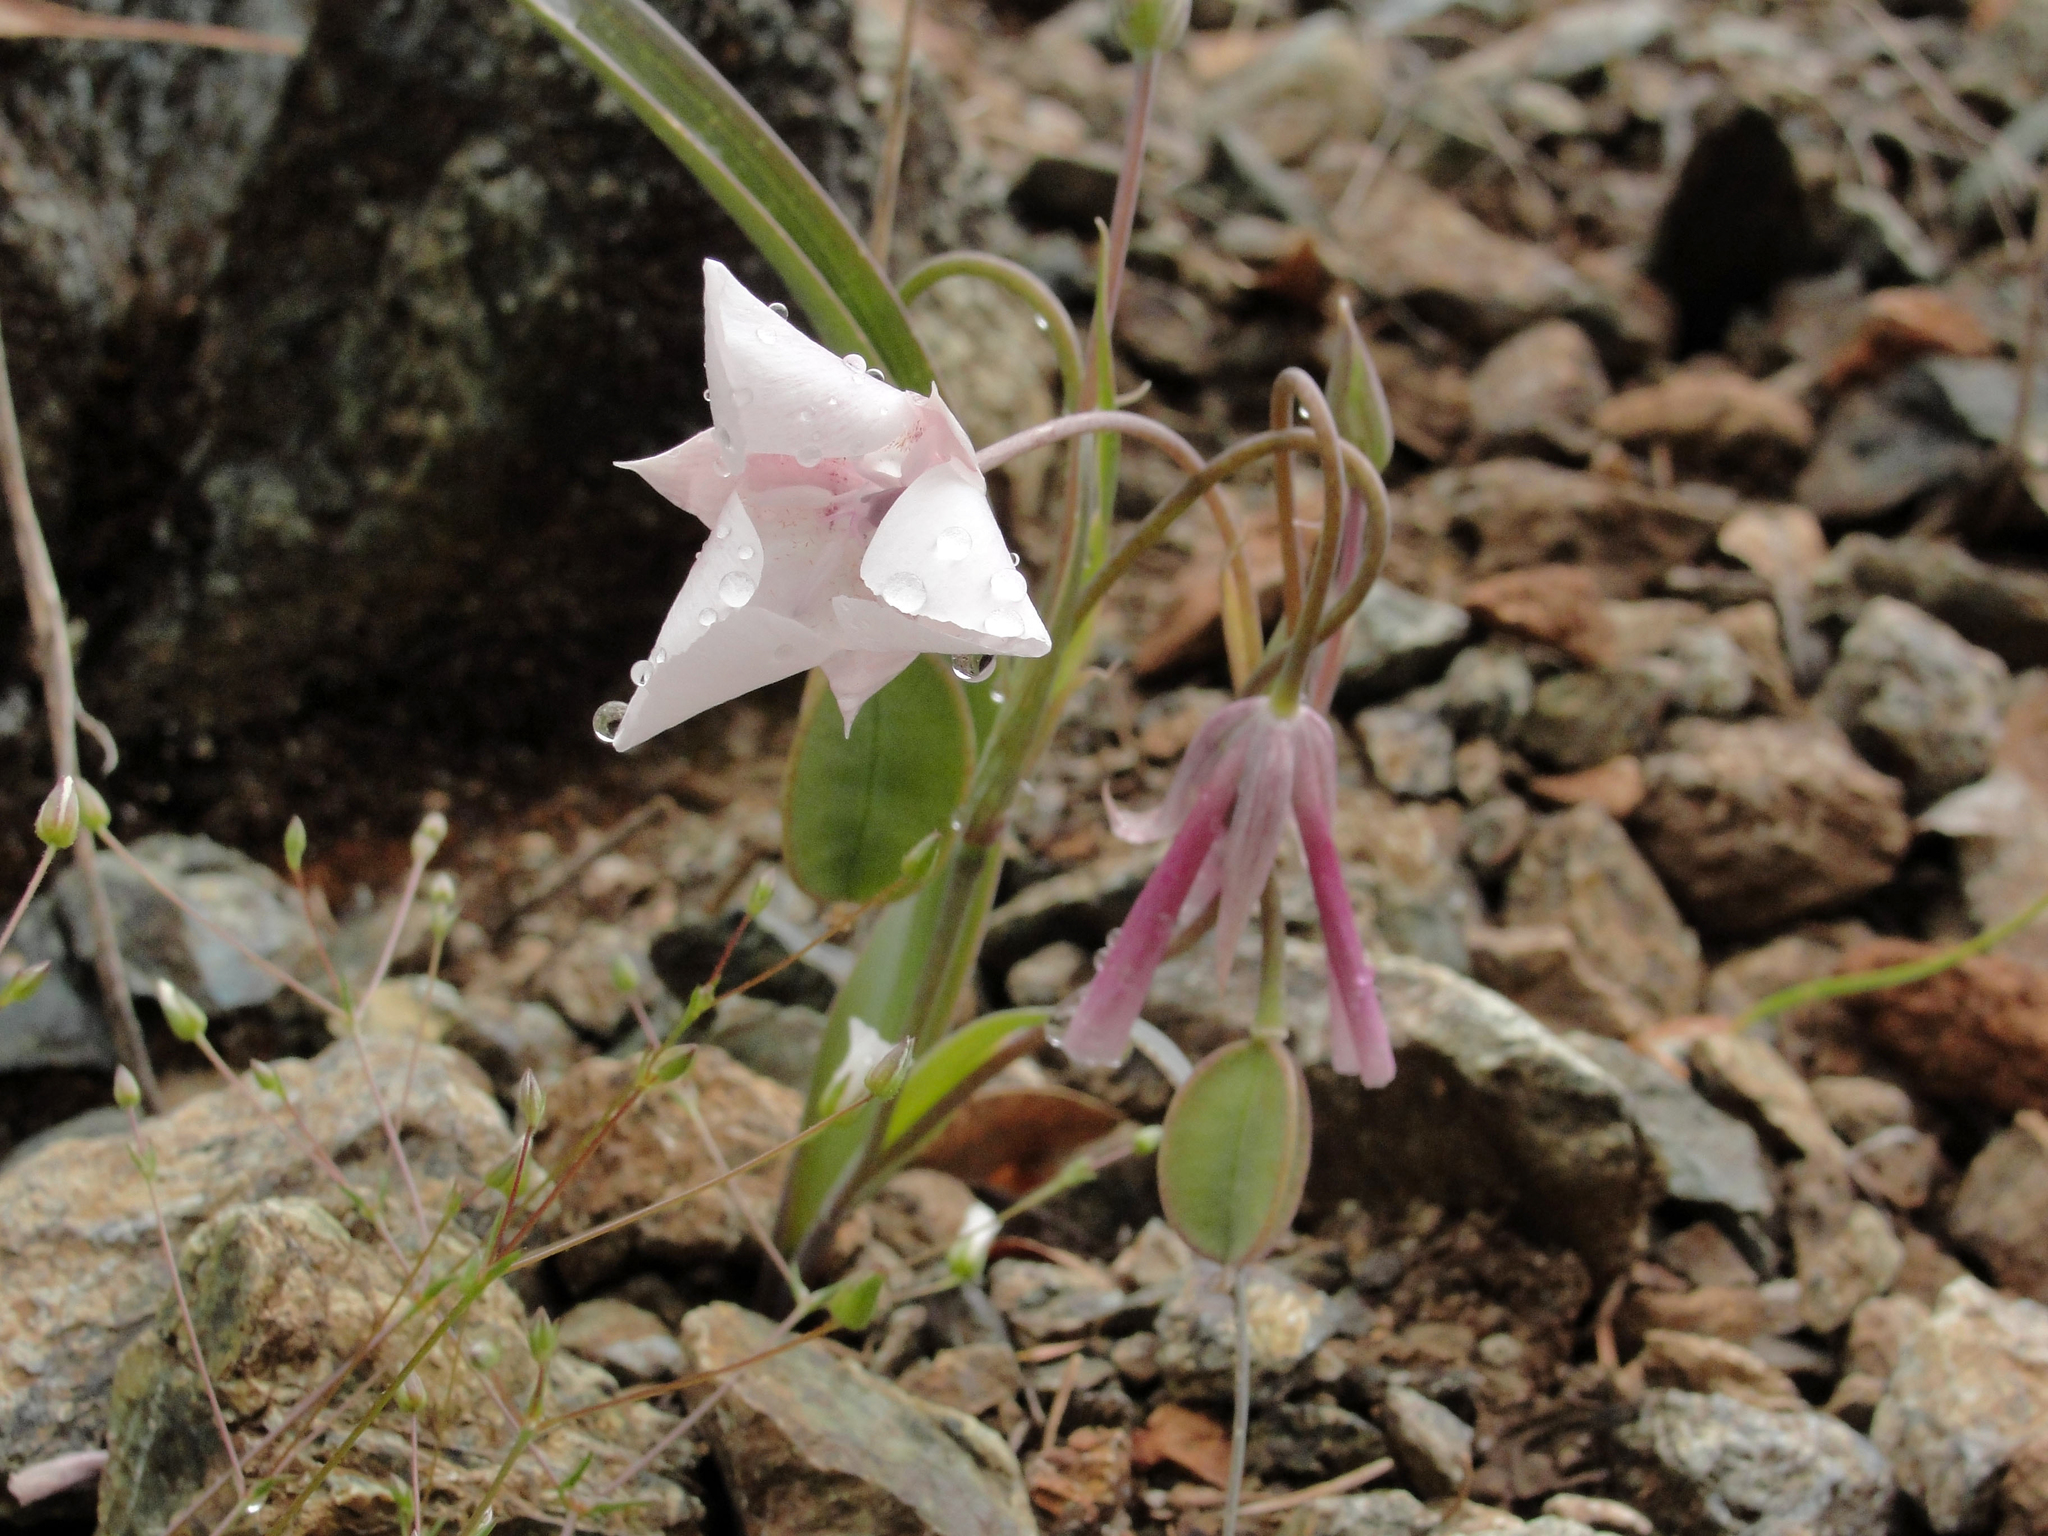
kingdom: Plantae
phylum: Tracheophyta
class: Liliopsida
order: Liliales
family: Liliaceae
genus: Calochortus
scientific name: Calochortus umbellatus
